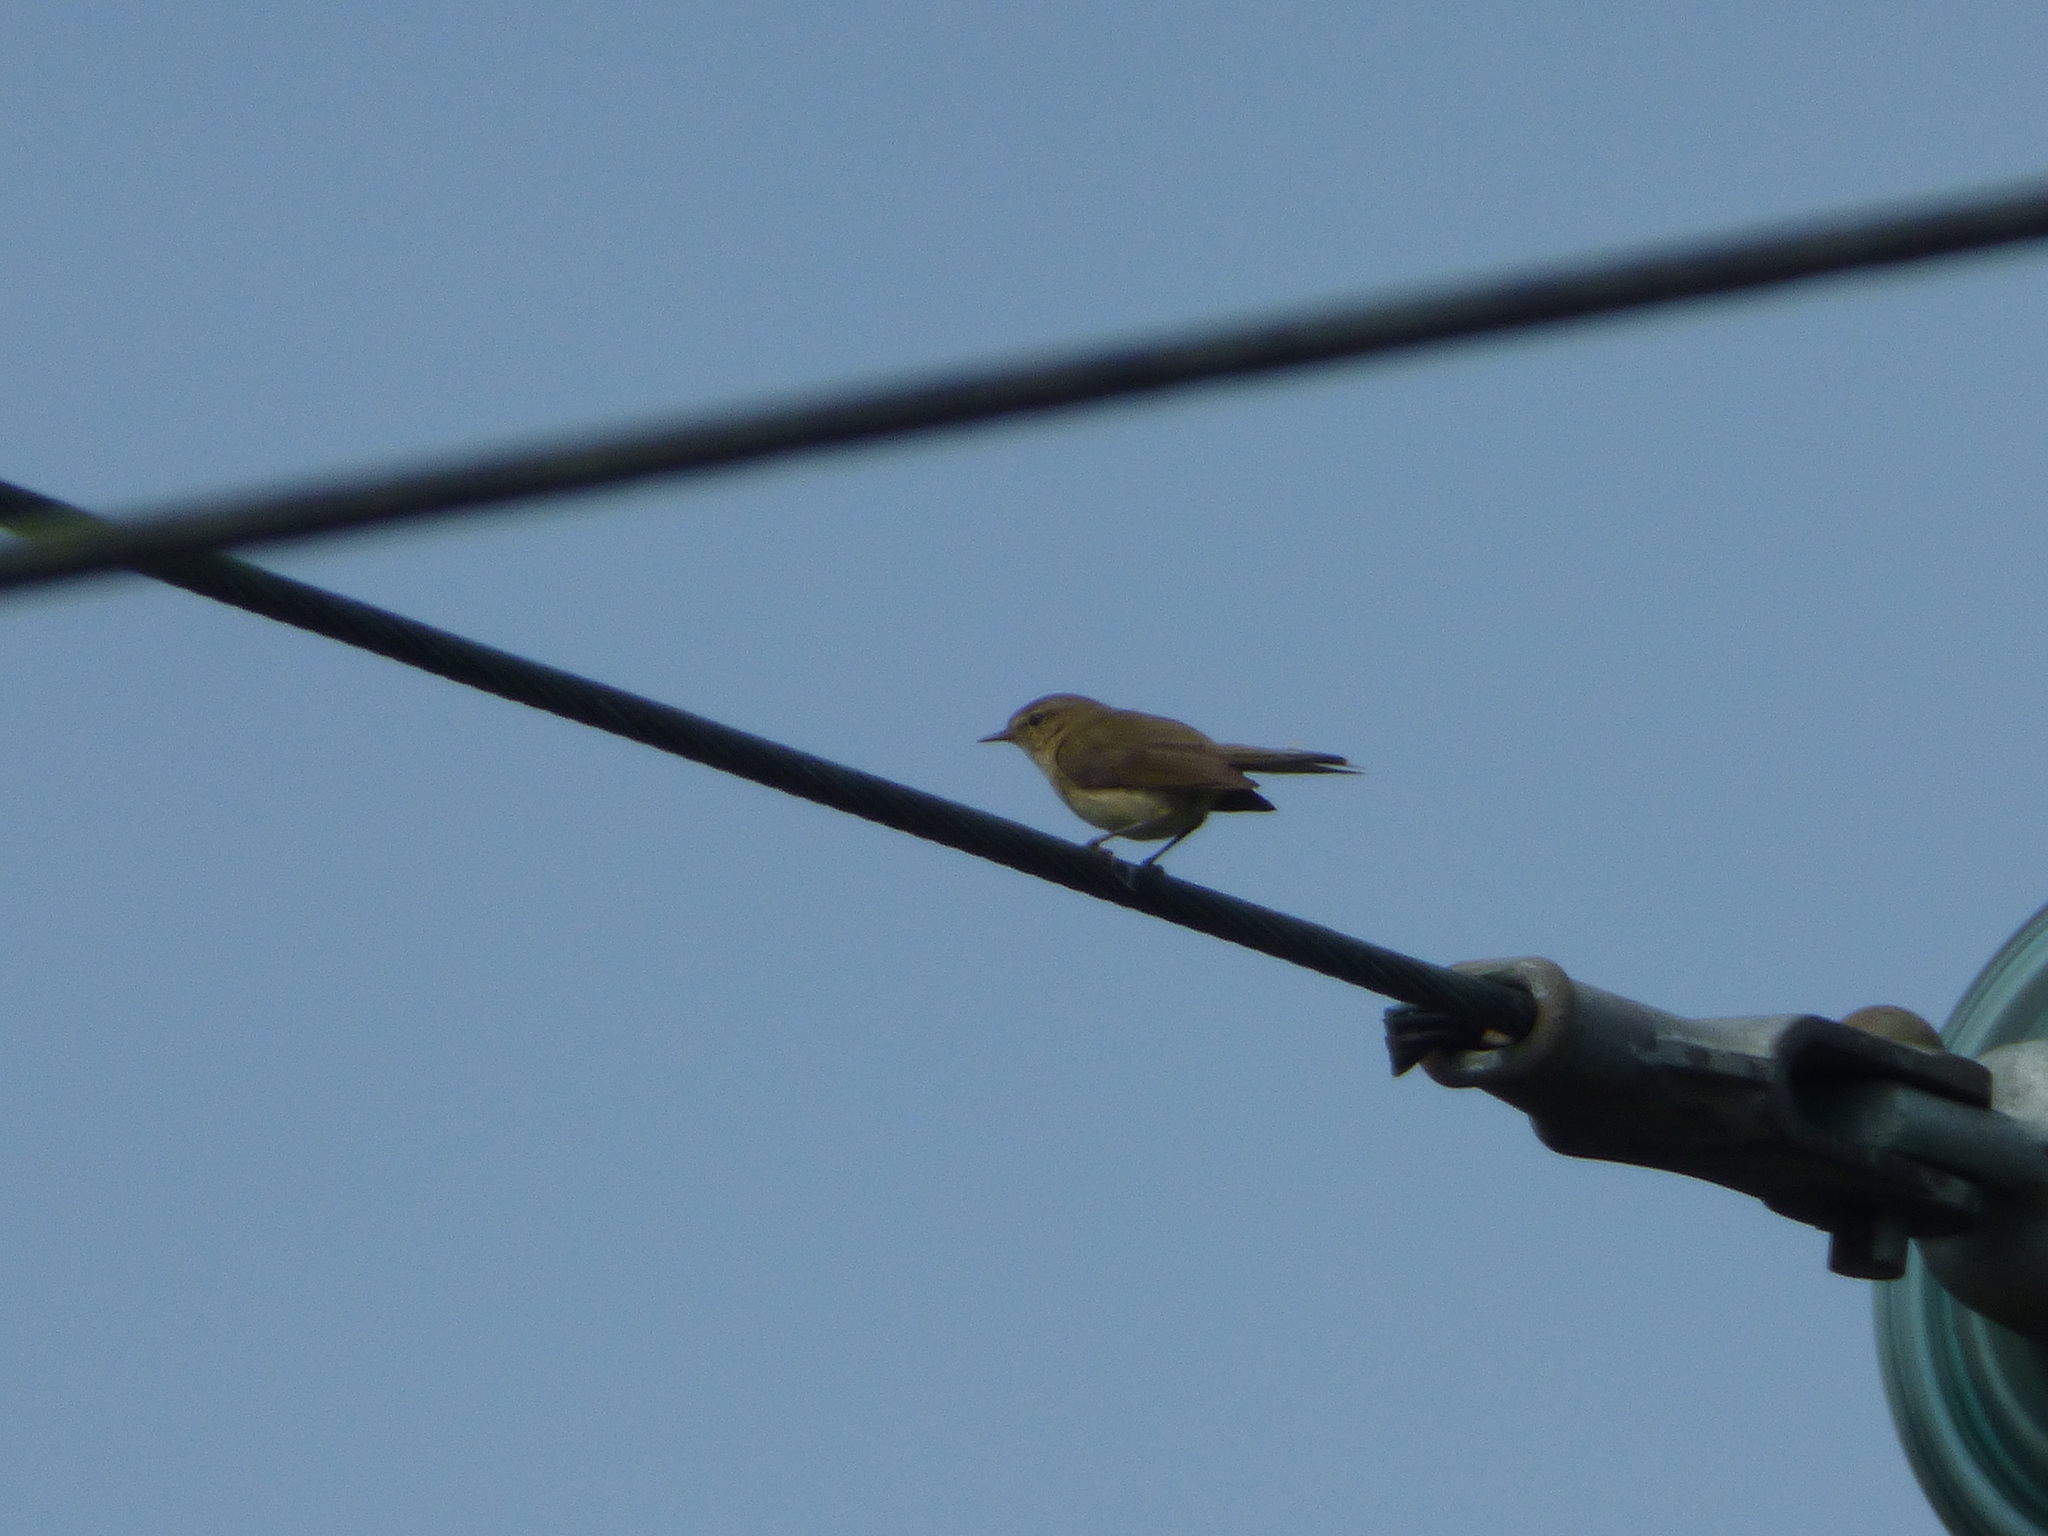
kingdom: Animalia
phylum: Chordata
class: Aves
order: Passeriformes
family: Phylloscopidae
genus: Phylloscopus
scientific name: Phylloscopus collybita
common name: Common chiffchaff
